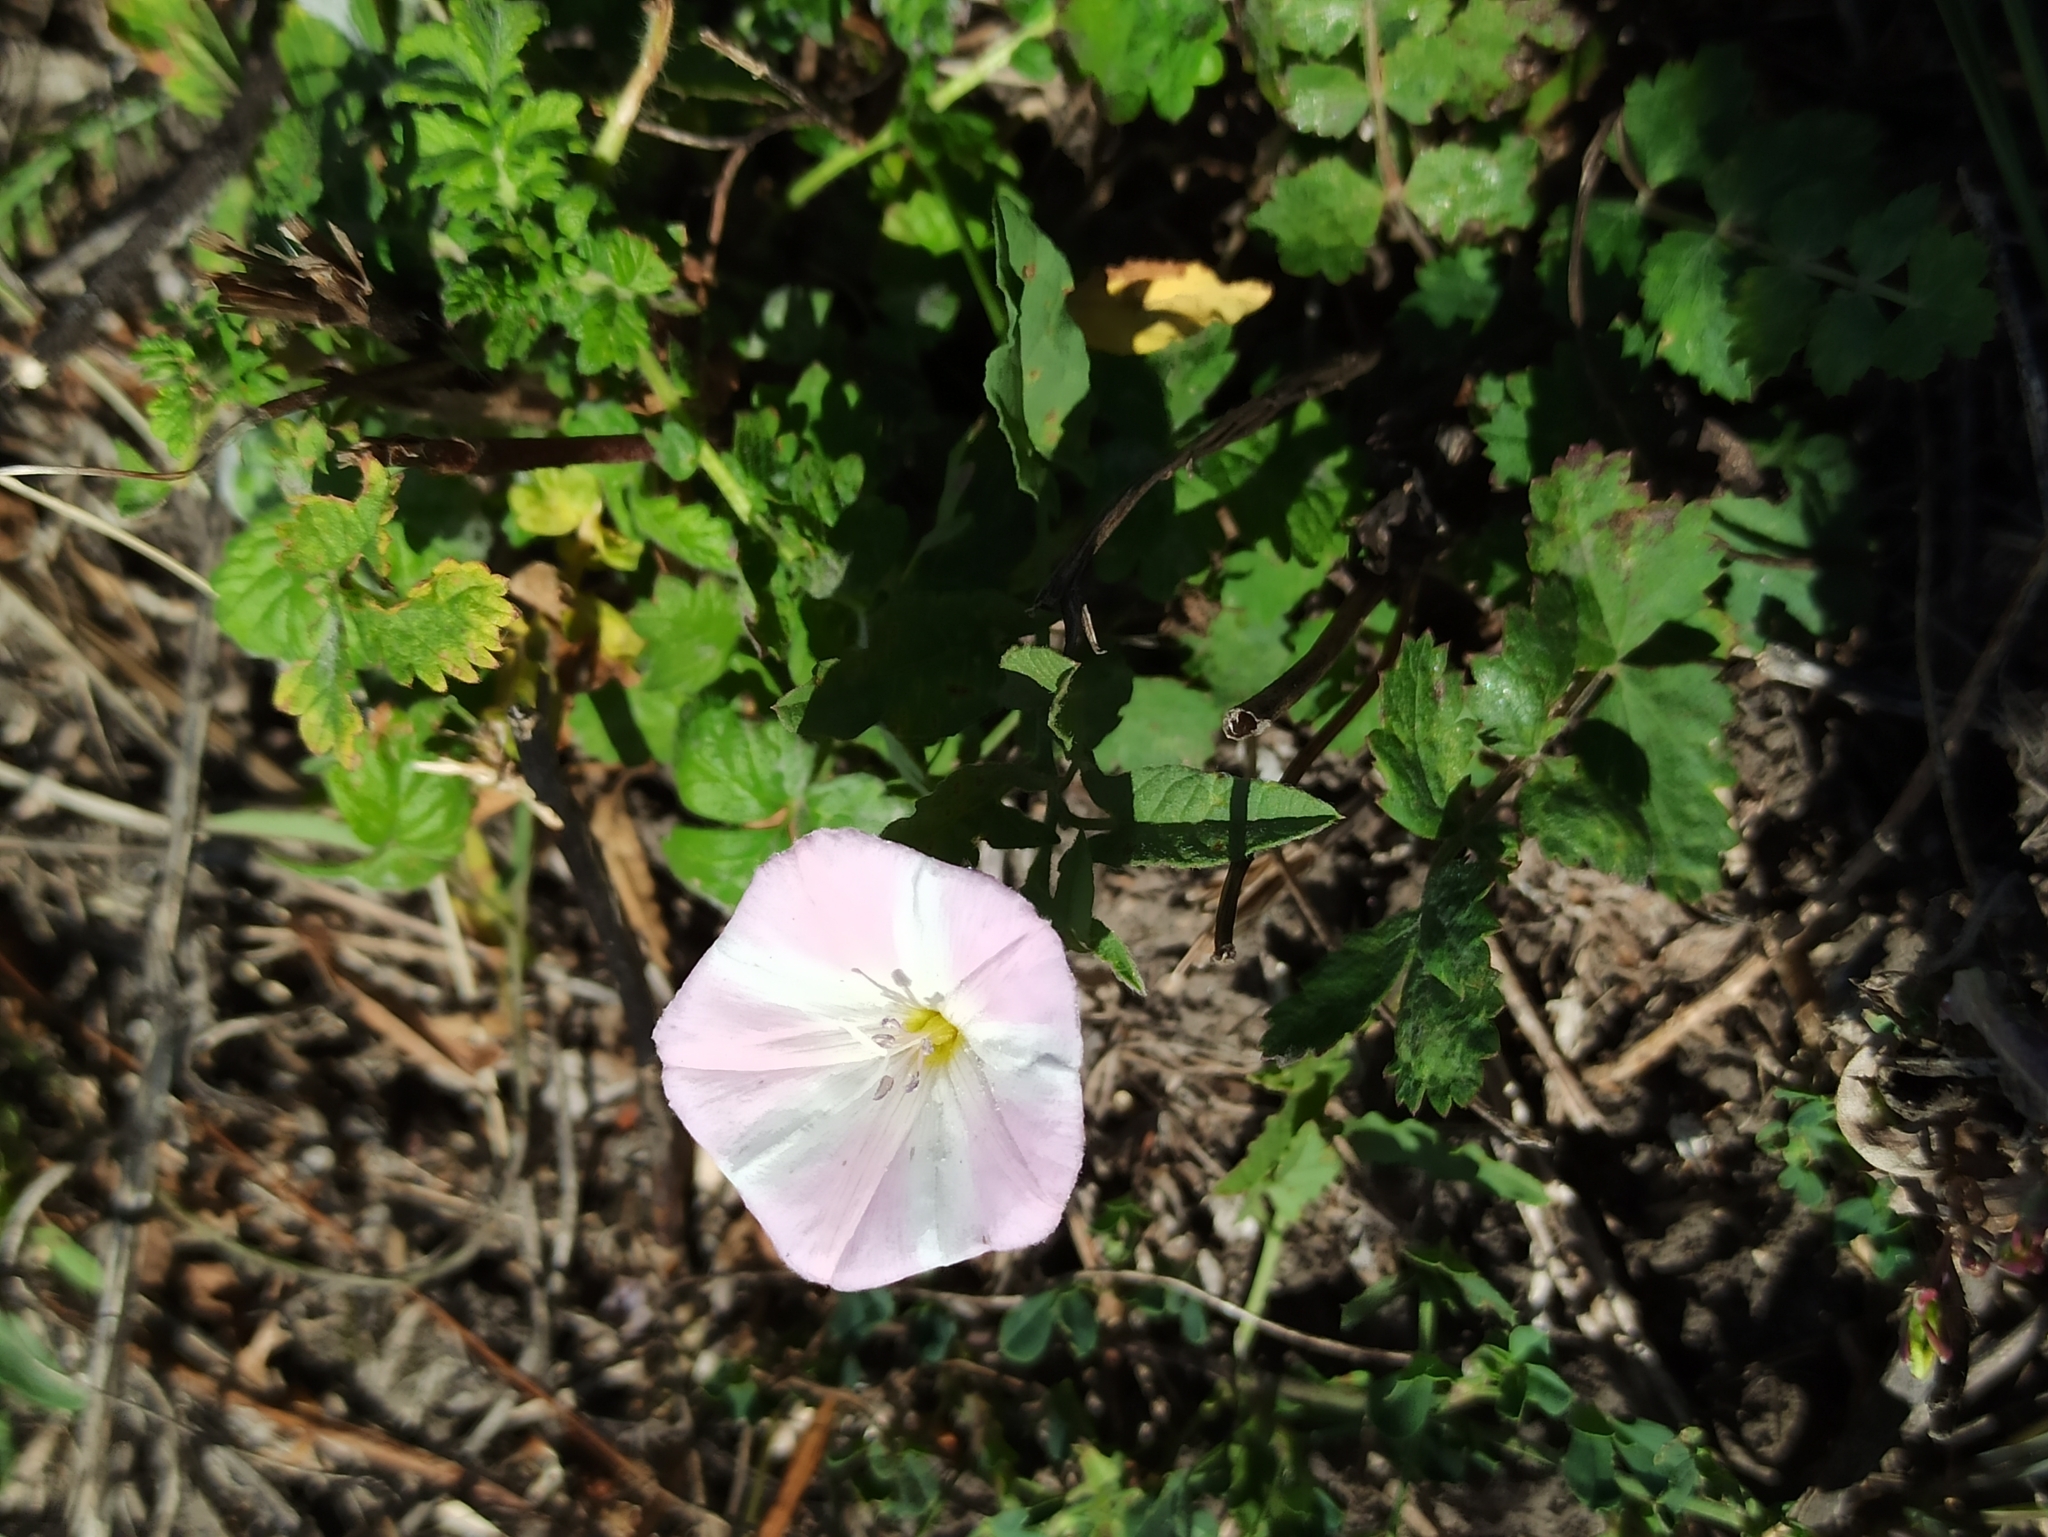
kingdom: Plantae
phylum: Tracheophyta
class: Magnoliopsida
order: Solanales
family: Convolvulaceae
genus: Convolvulus
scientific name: Convolvulus arvensis
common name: Field bindweed
